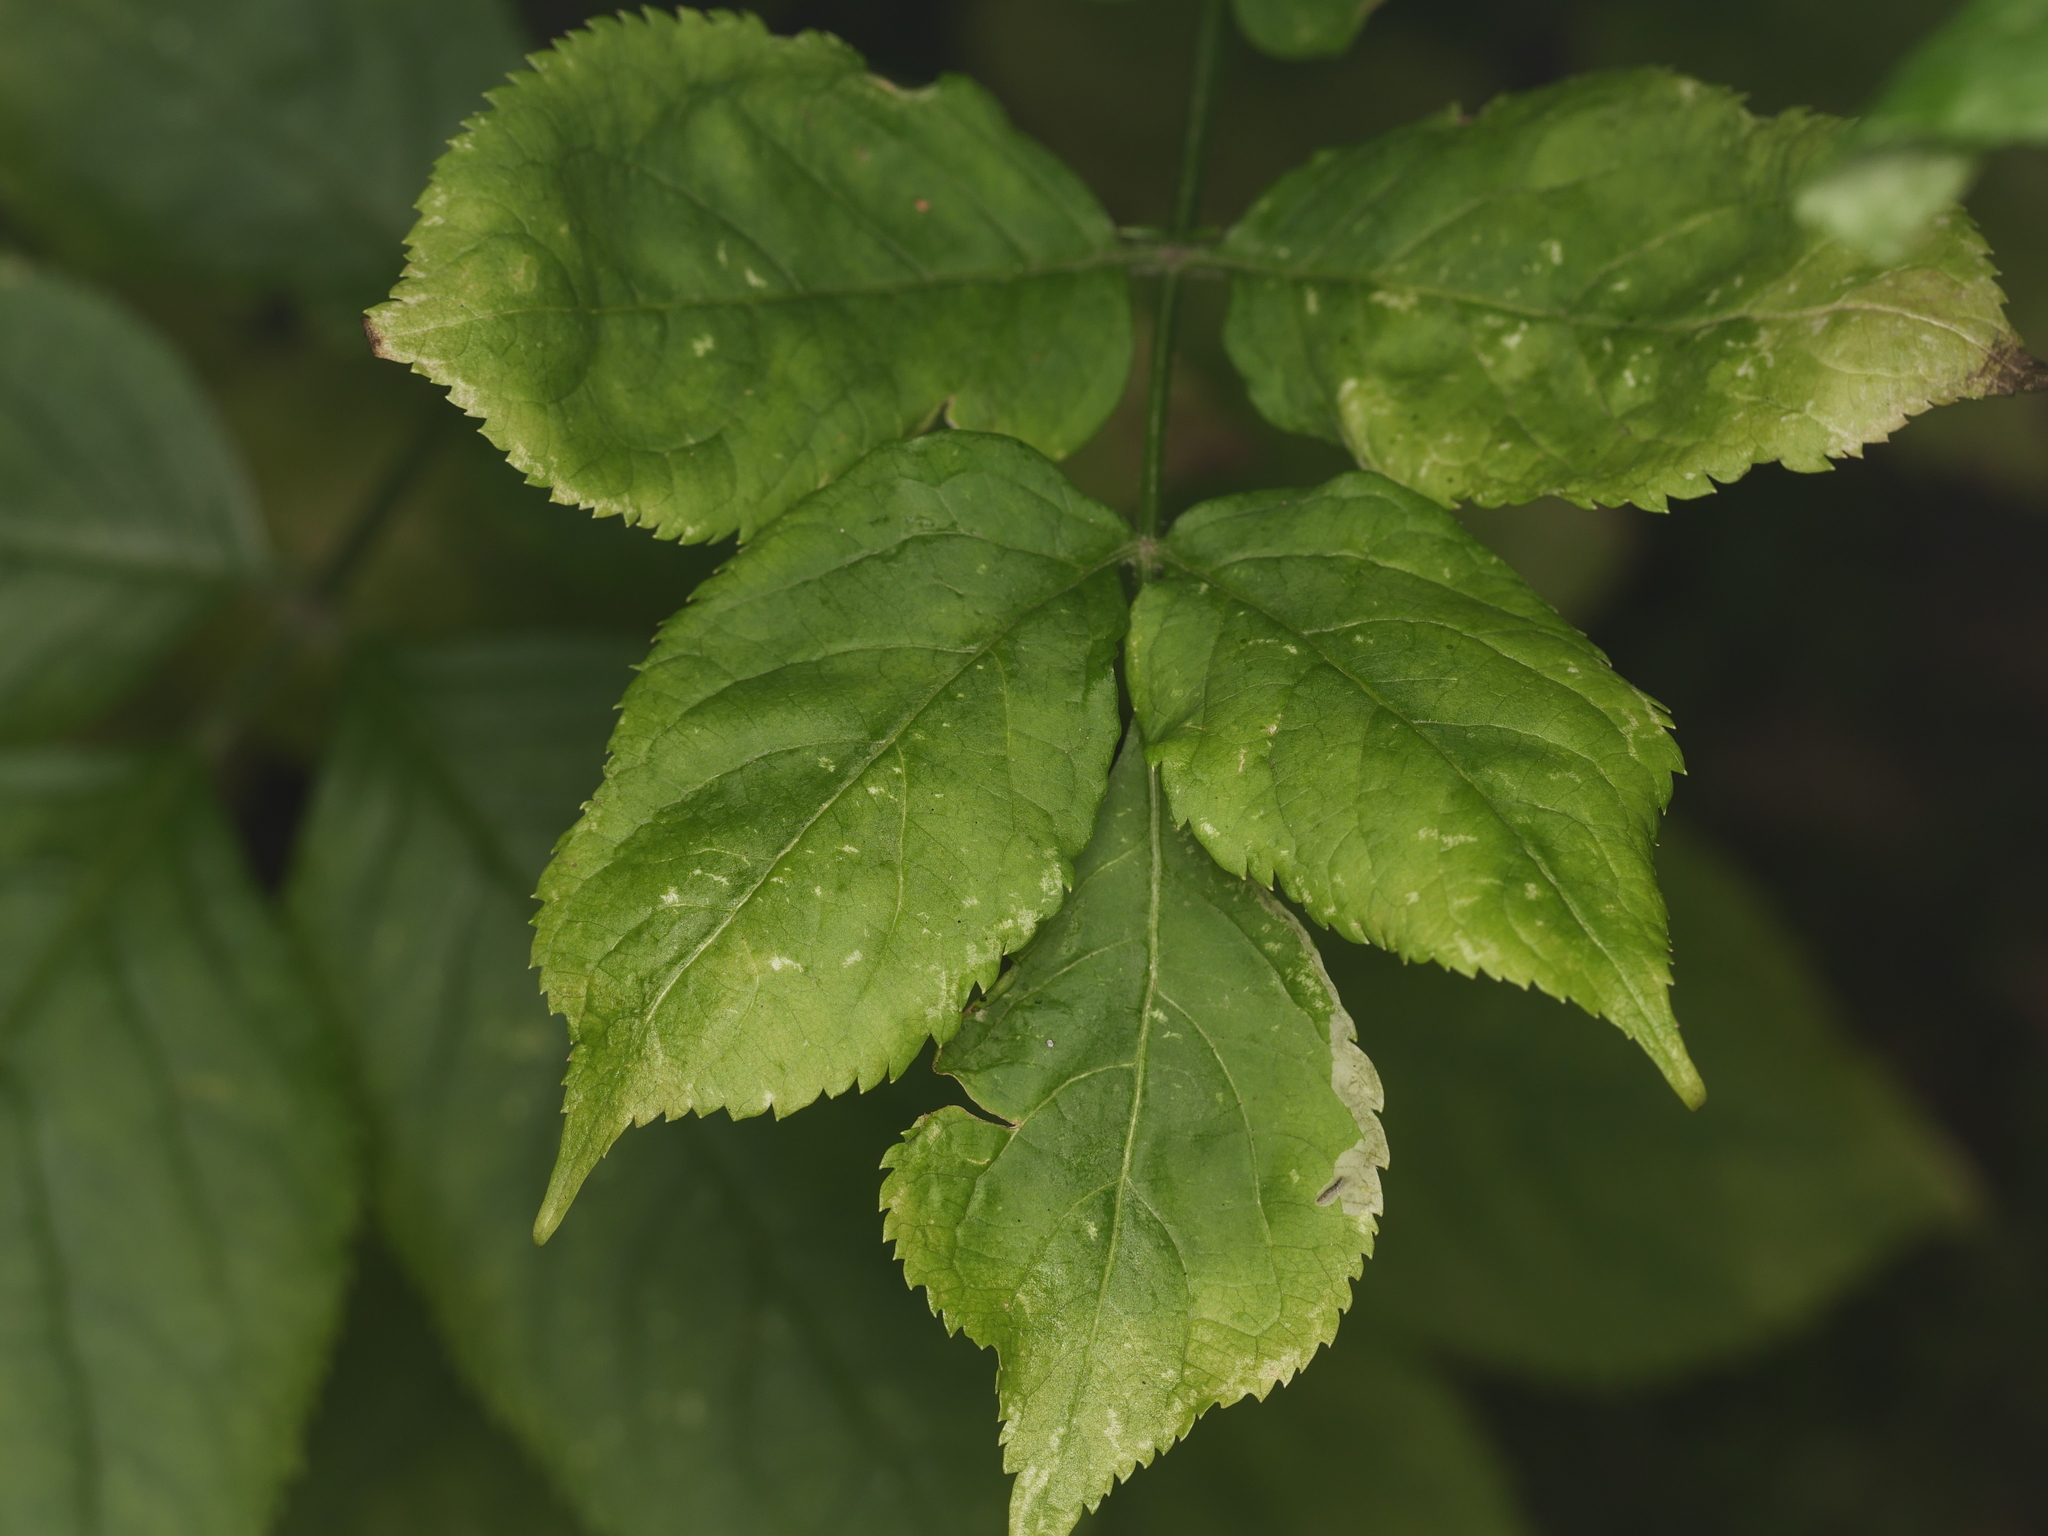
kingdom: Plantae
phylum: Tracheophyta
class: Magnoliopsida
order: Dipsacales
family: Viburnaceae
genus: Sambucus
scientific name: Sambucus nigra
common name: Elder
